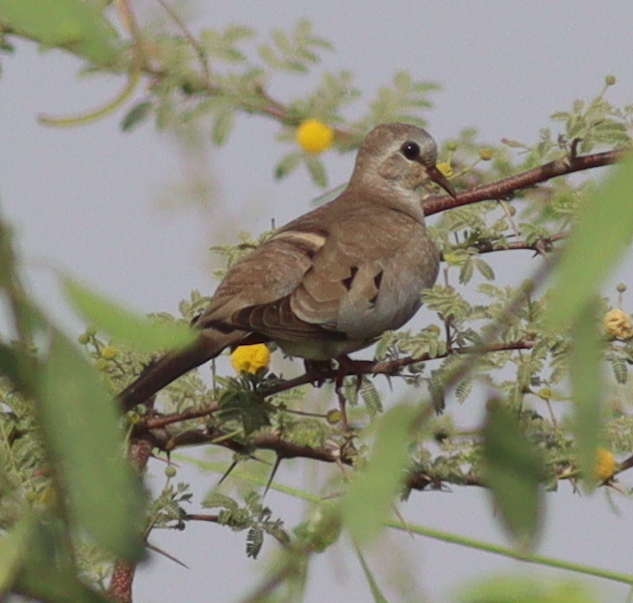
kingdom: Animalia
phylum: Chordata
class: Aves
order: Columbiformes
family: Columbidae
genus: Oena
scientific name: Oena capensis
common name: Namaqua dove
